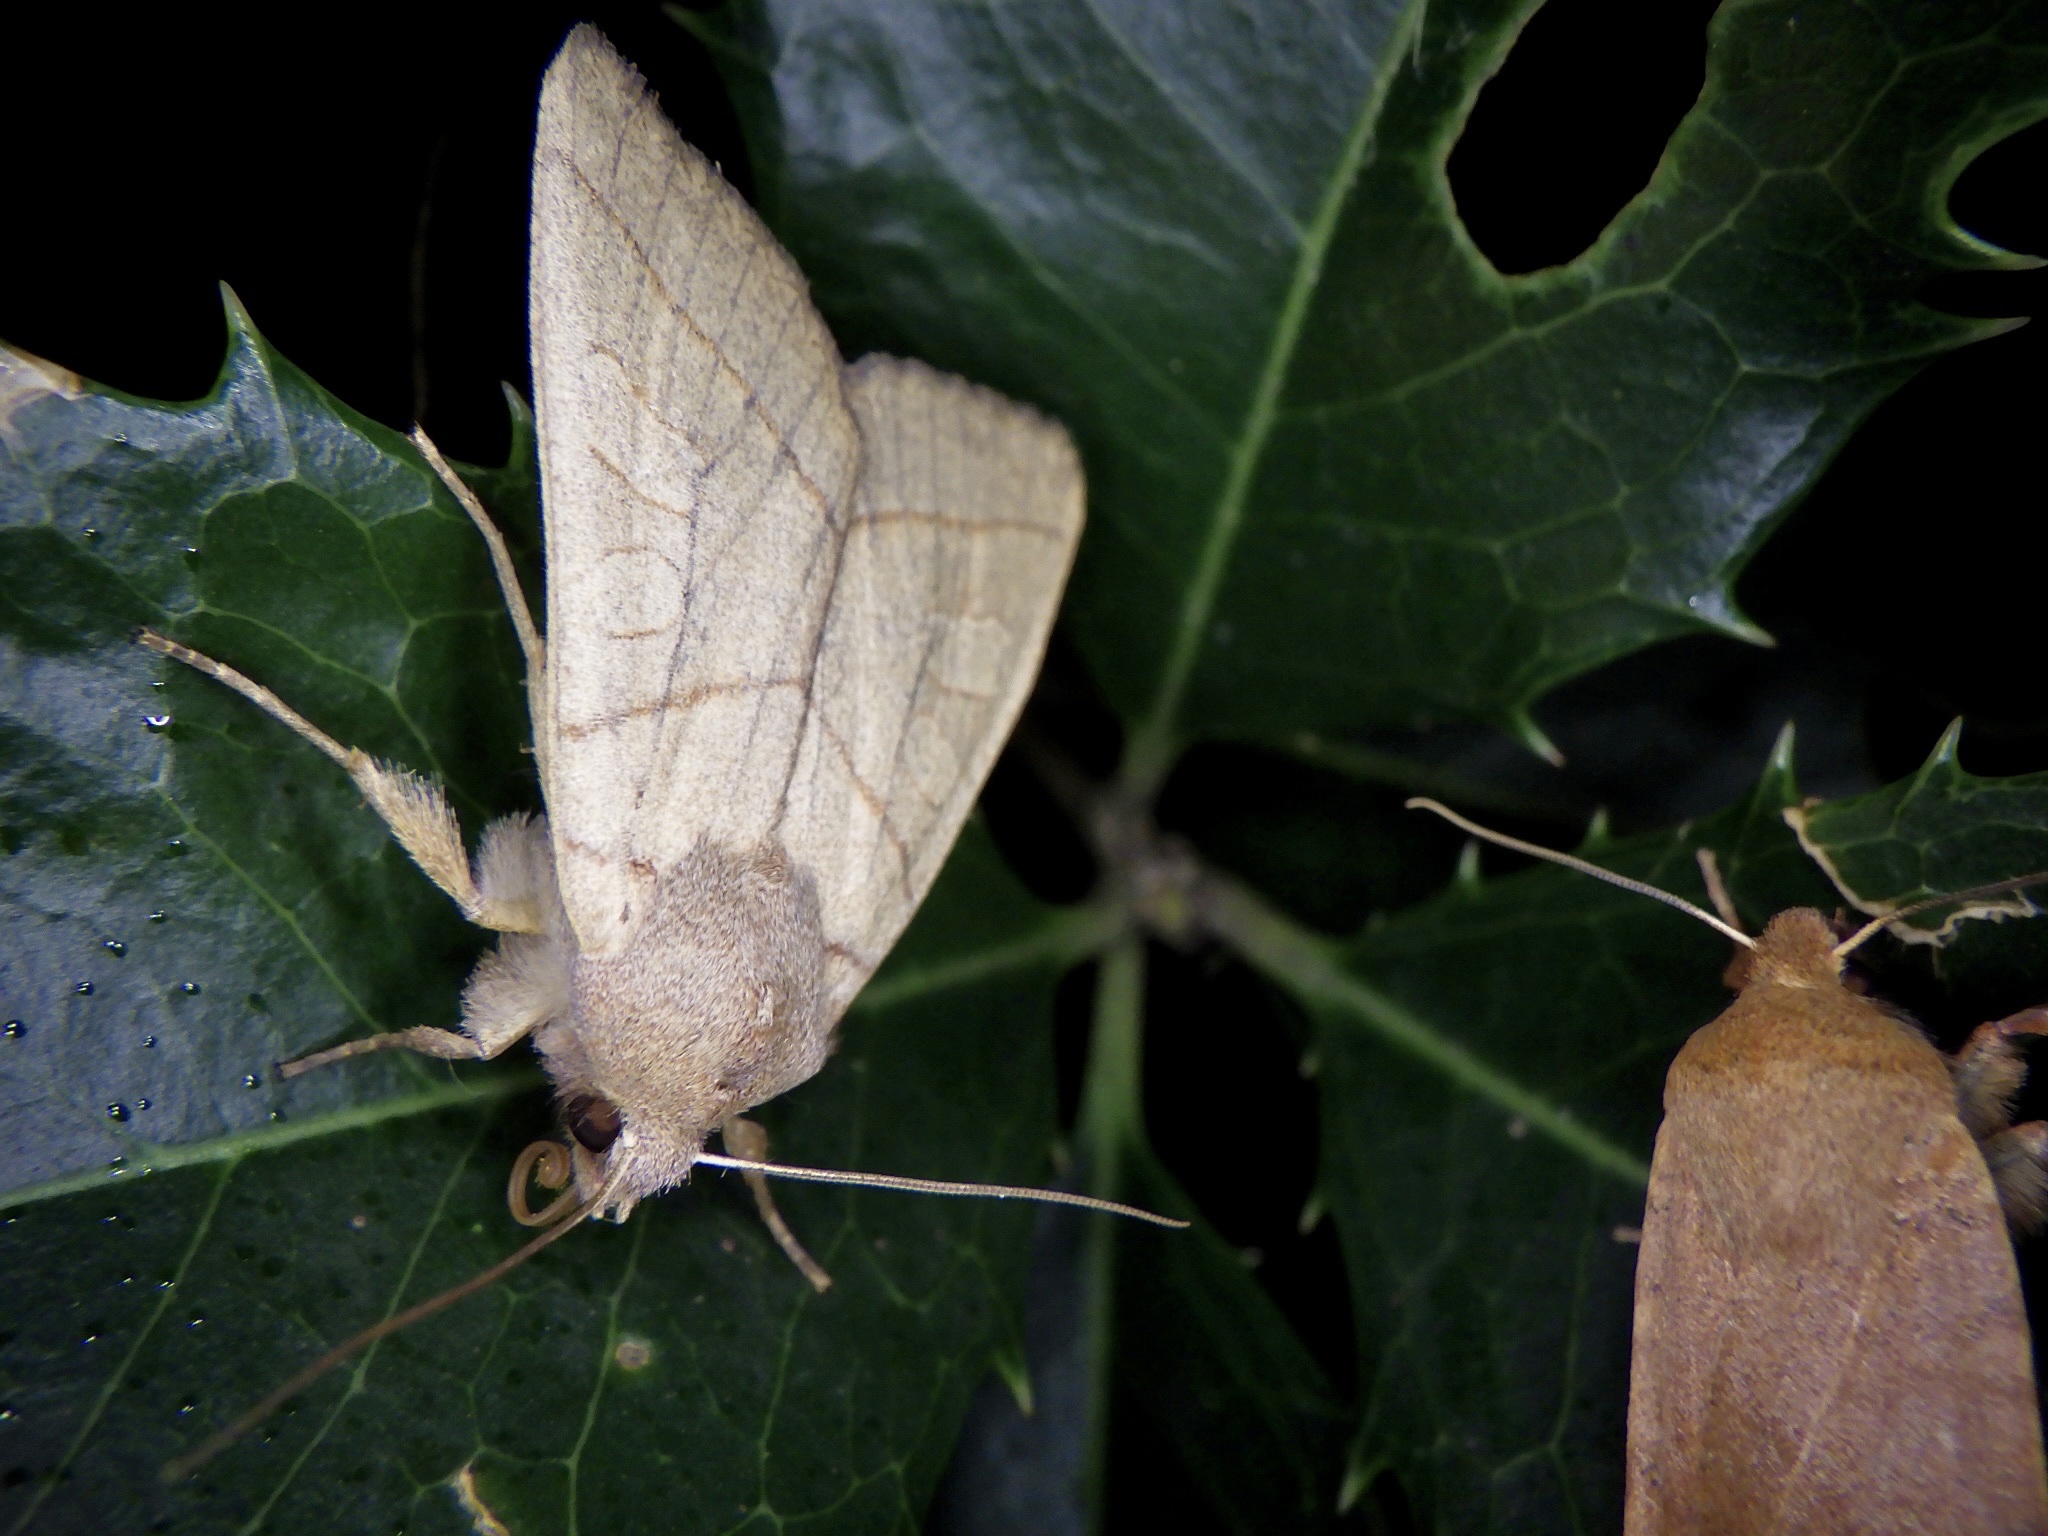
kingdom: Animalia
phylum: Arthropoda
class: Insecta
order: Lepidoptera
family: Noctuidae
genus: Telorta
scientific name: Telorta divergens
